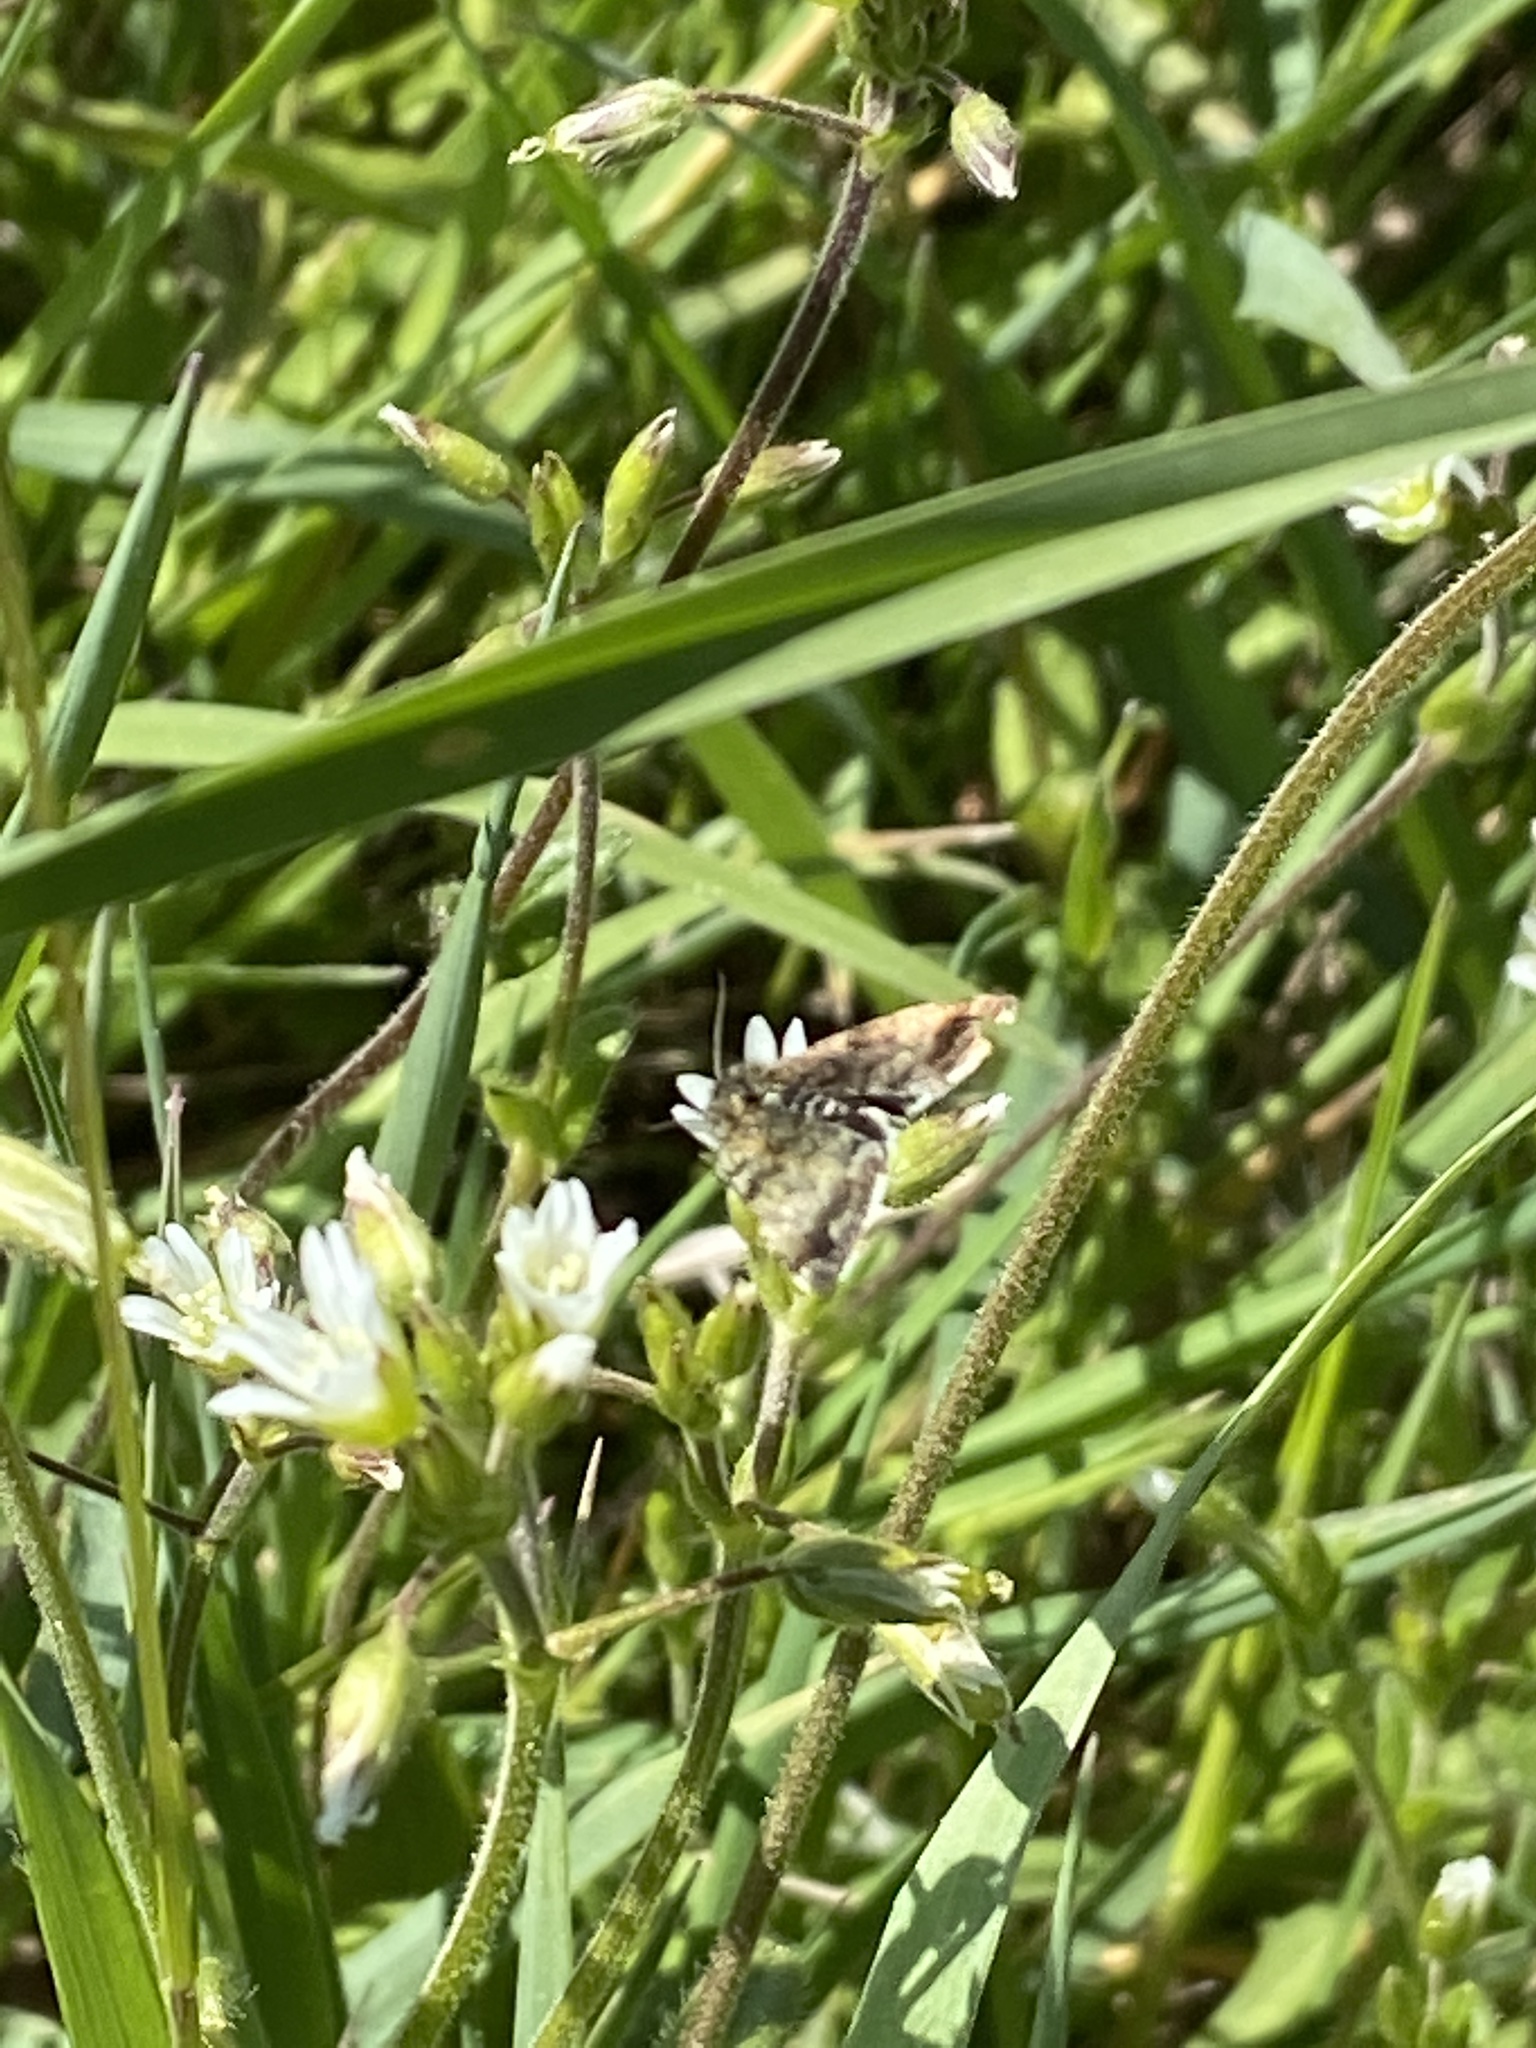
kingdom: Animalia
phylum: Arthropoda
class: Insecta
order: Lepidoptera
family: Noctuidae
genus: Panemeria
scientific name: Panemeria tenebrata
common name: Small yellow underwing
